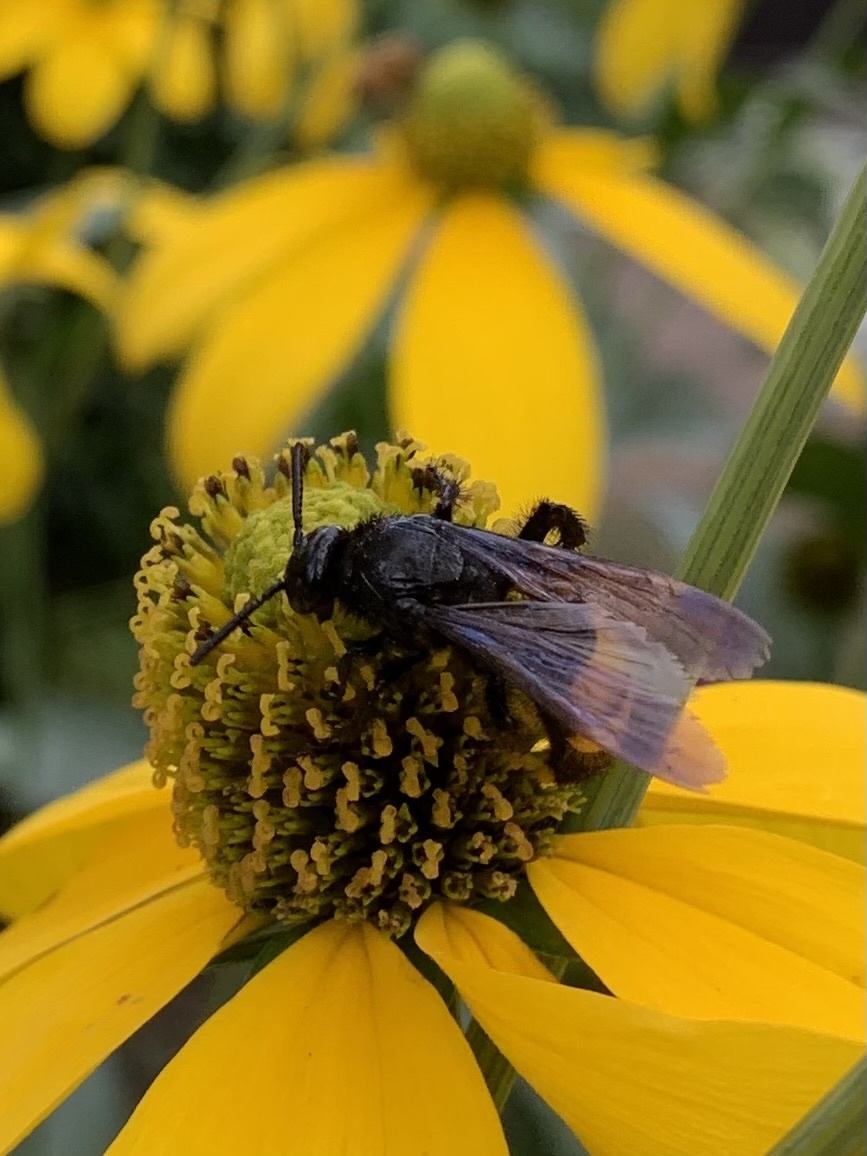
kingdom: Animalia
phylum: Arthropoda
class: Insecta
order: Hymenoptera
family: Scoliidae
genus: Scolia
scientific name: Scolia hirta
